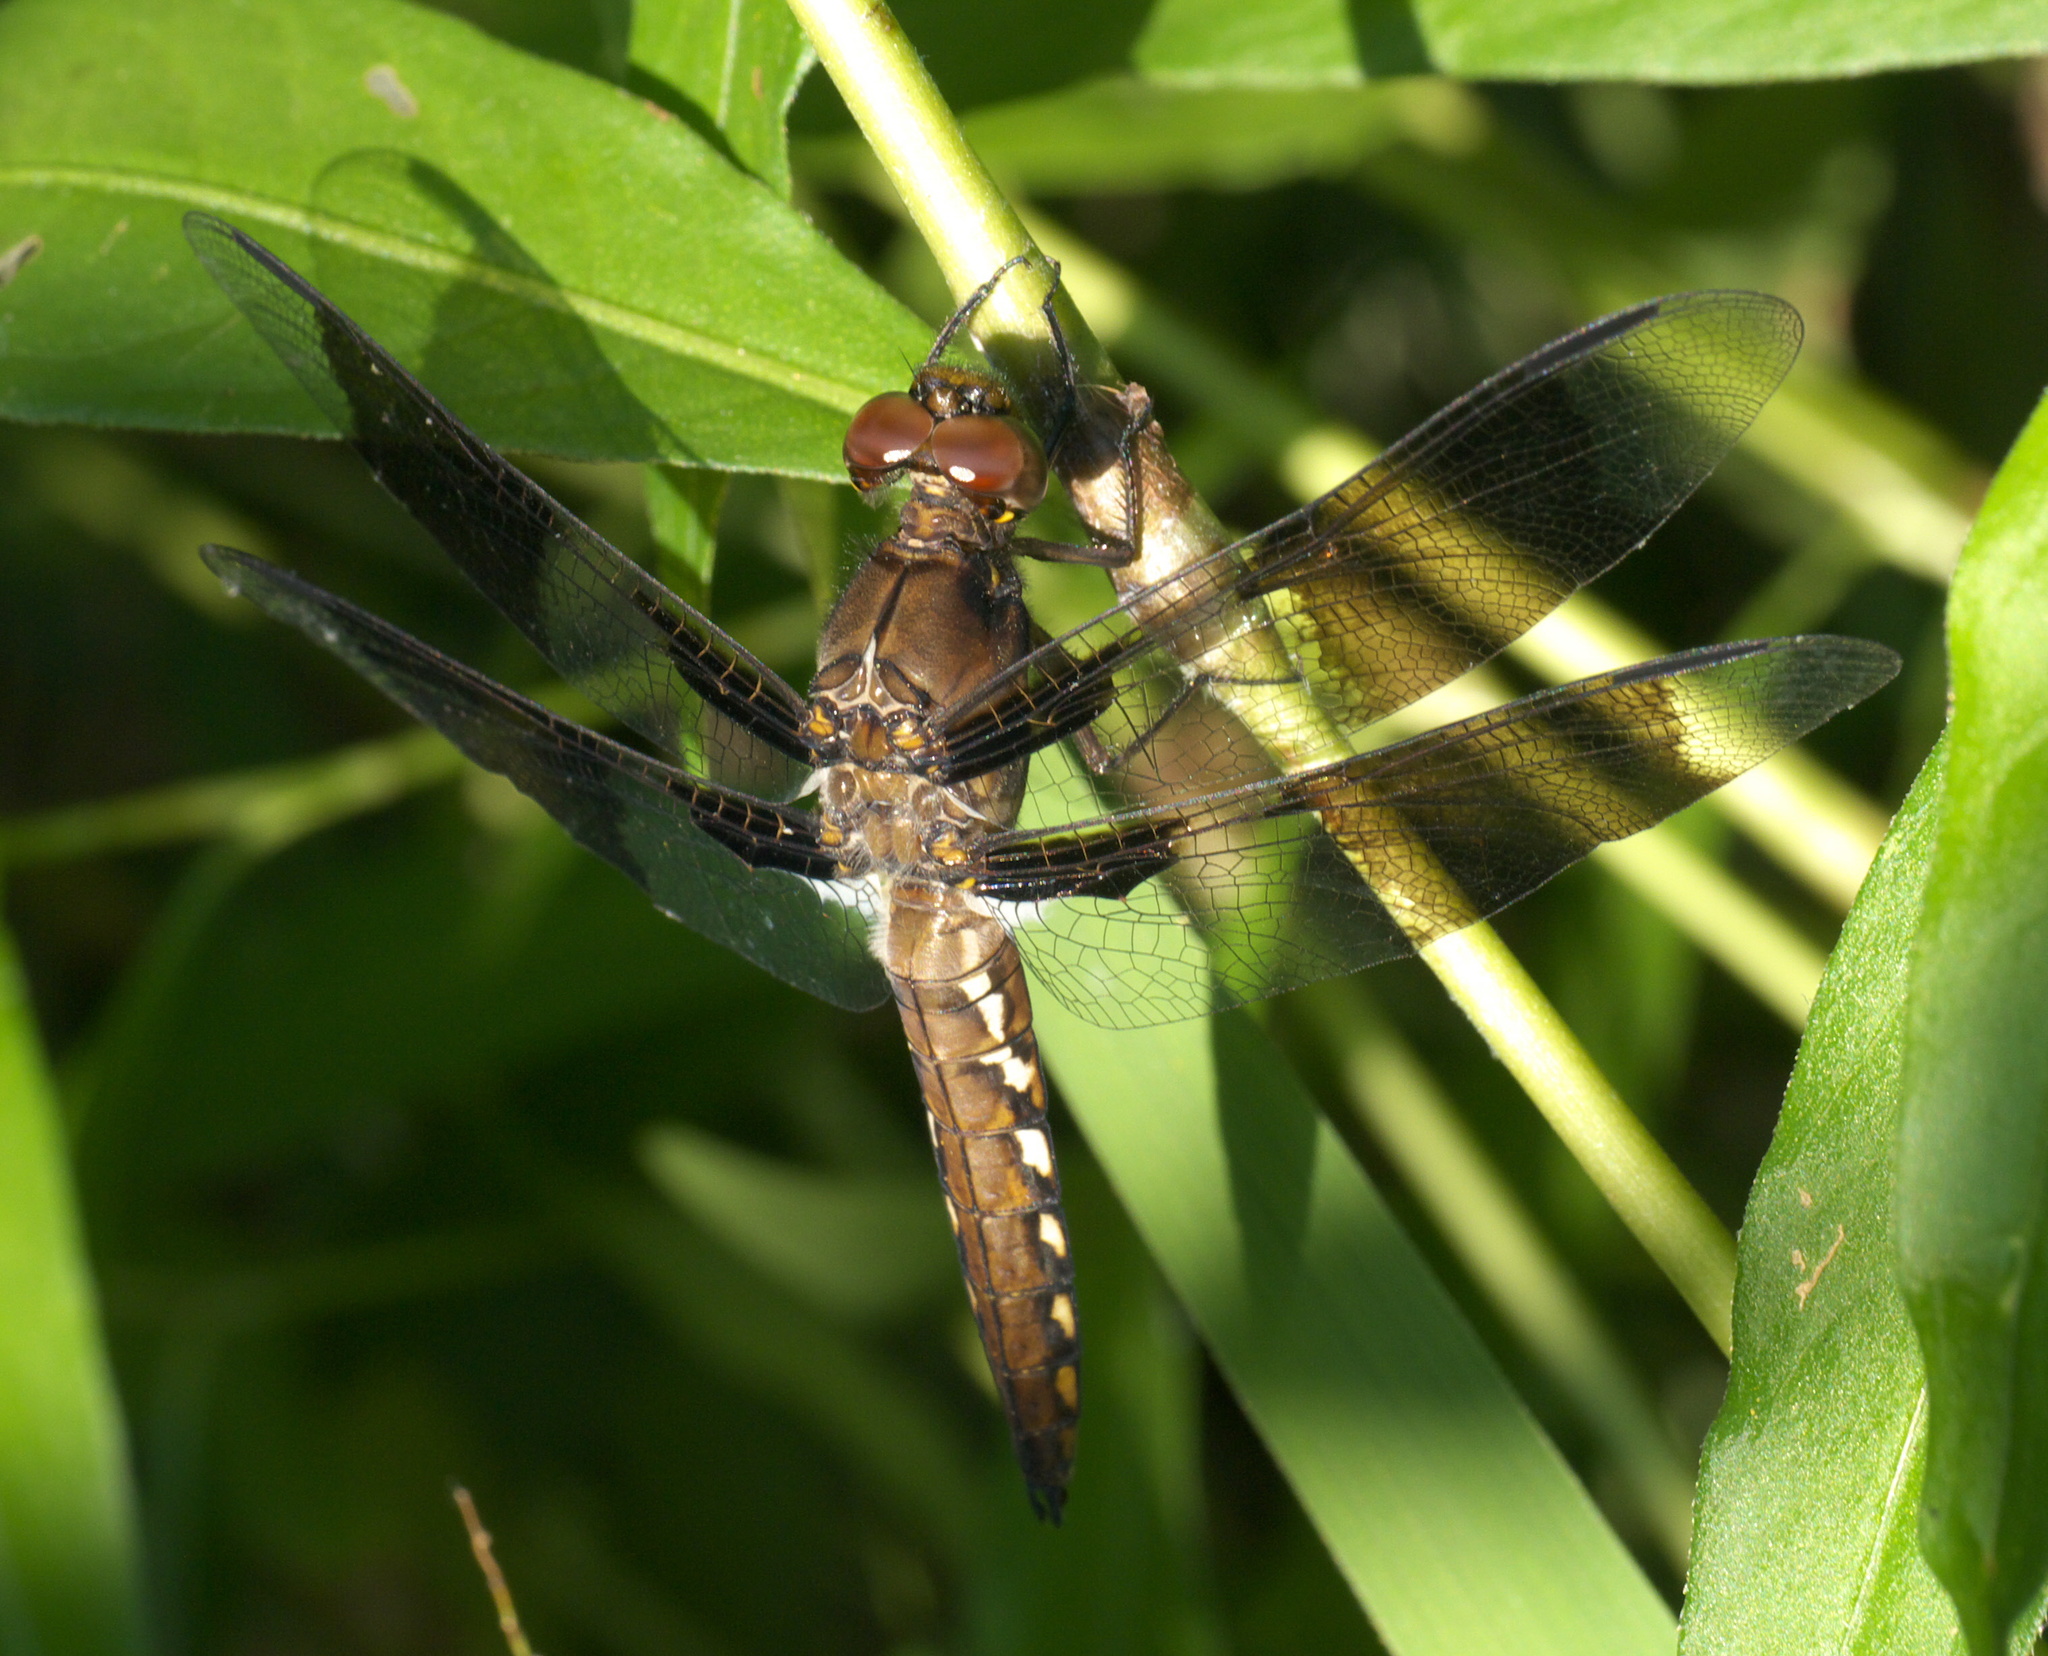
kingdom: Animalia
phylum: Arthropoda
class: Insecta
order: Odonata
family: Libellulidae
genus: Plathemis
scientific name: Plathemis lydia
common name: Common whitetail
